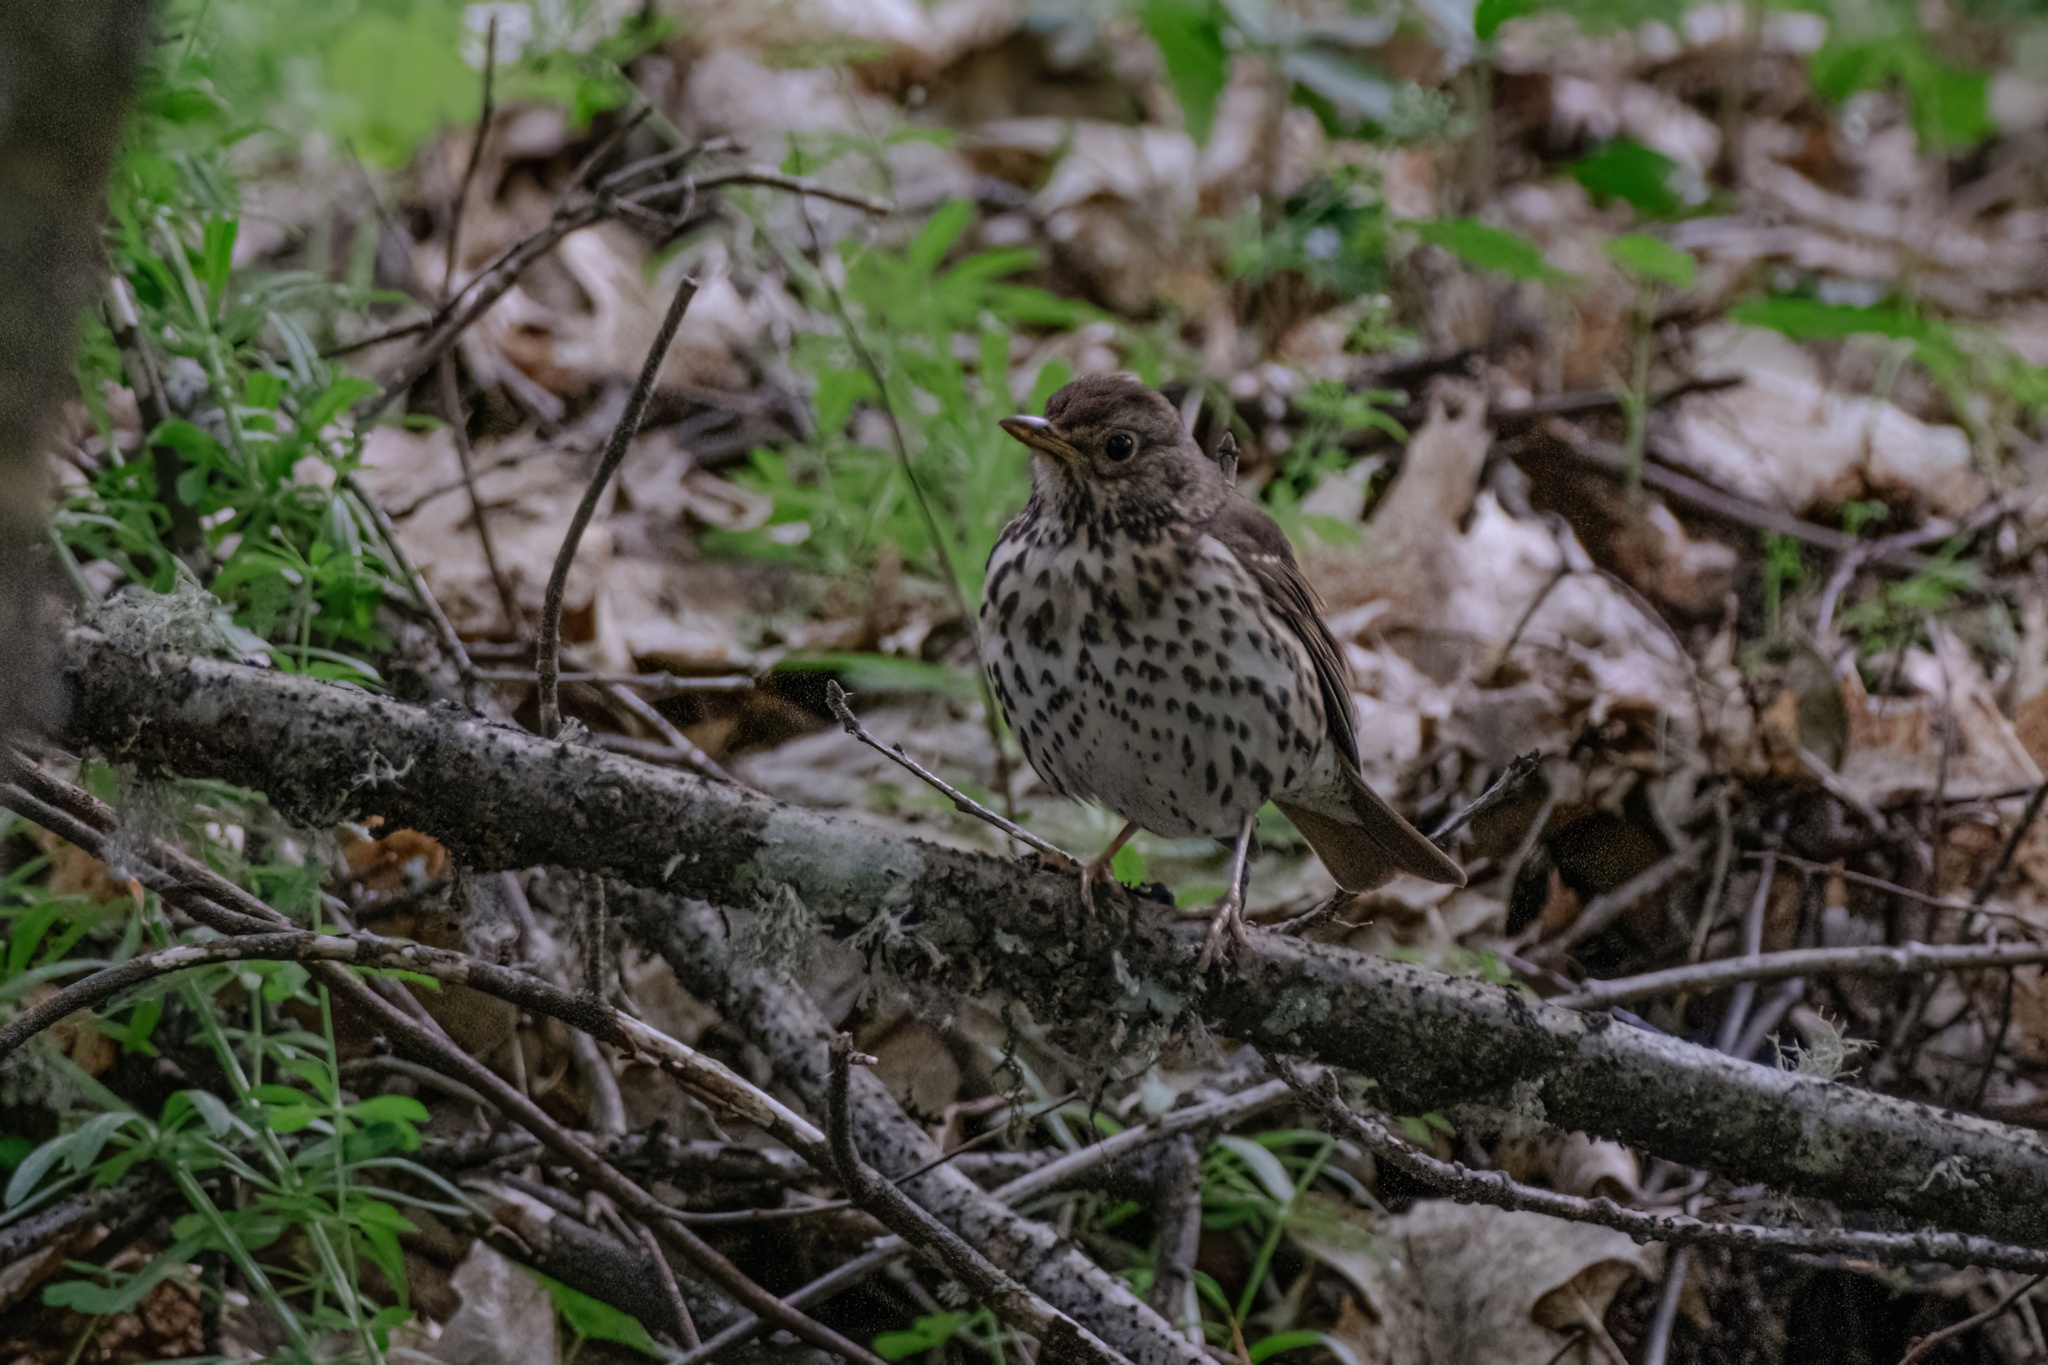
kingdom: Animalia
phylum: Chordata
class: Aves
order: Passeriformes
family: Turdidae
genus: Turdus
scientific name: Turdus philomelos
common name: Song thrush
